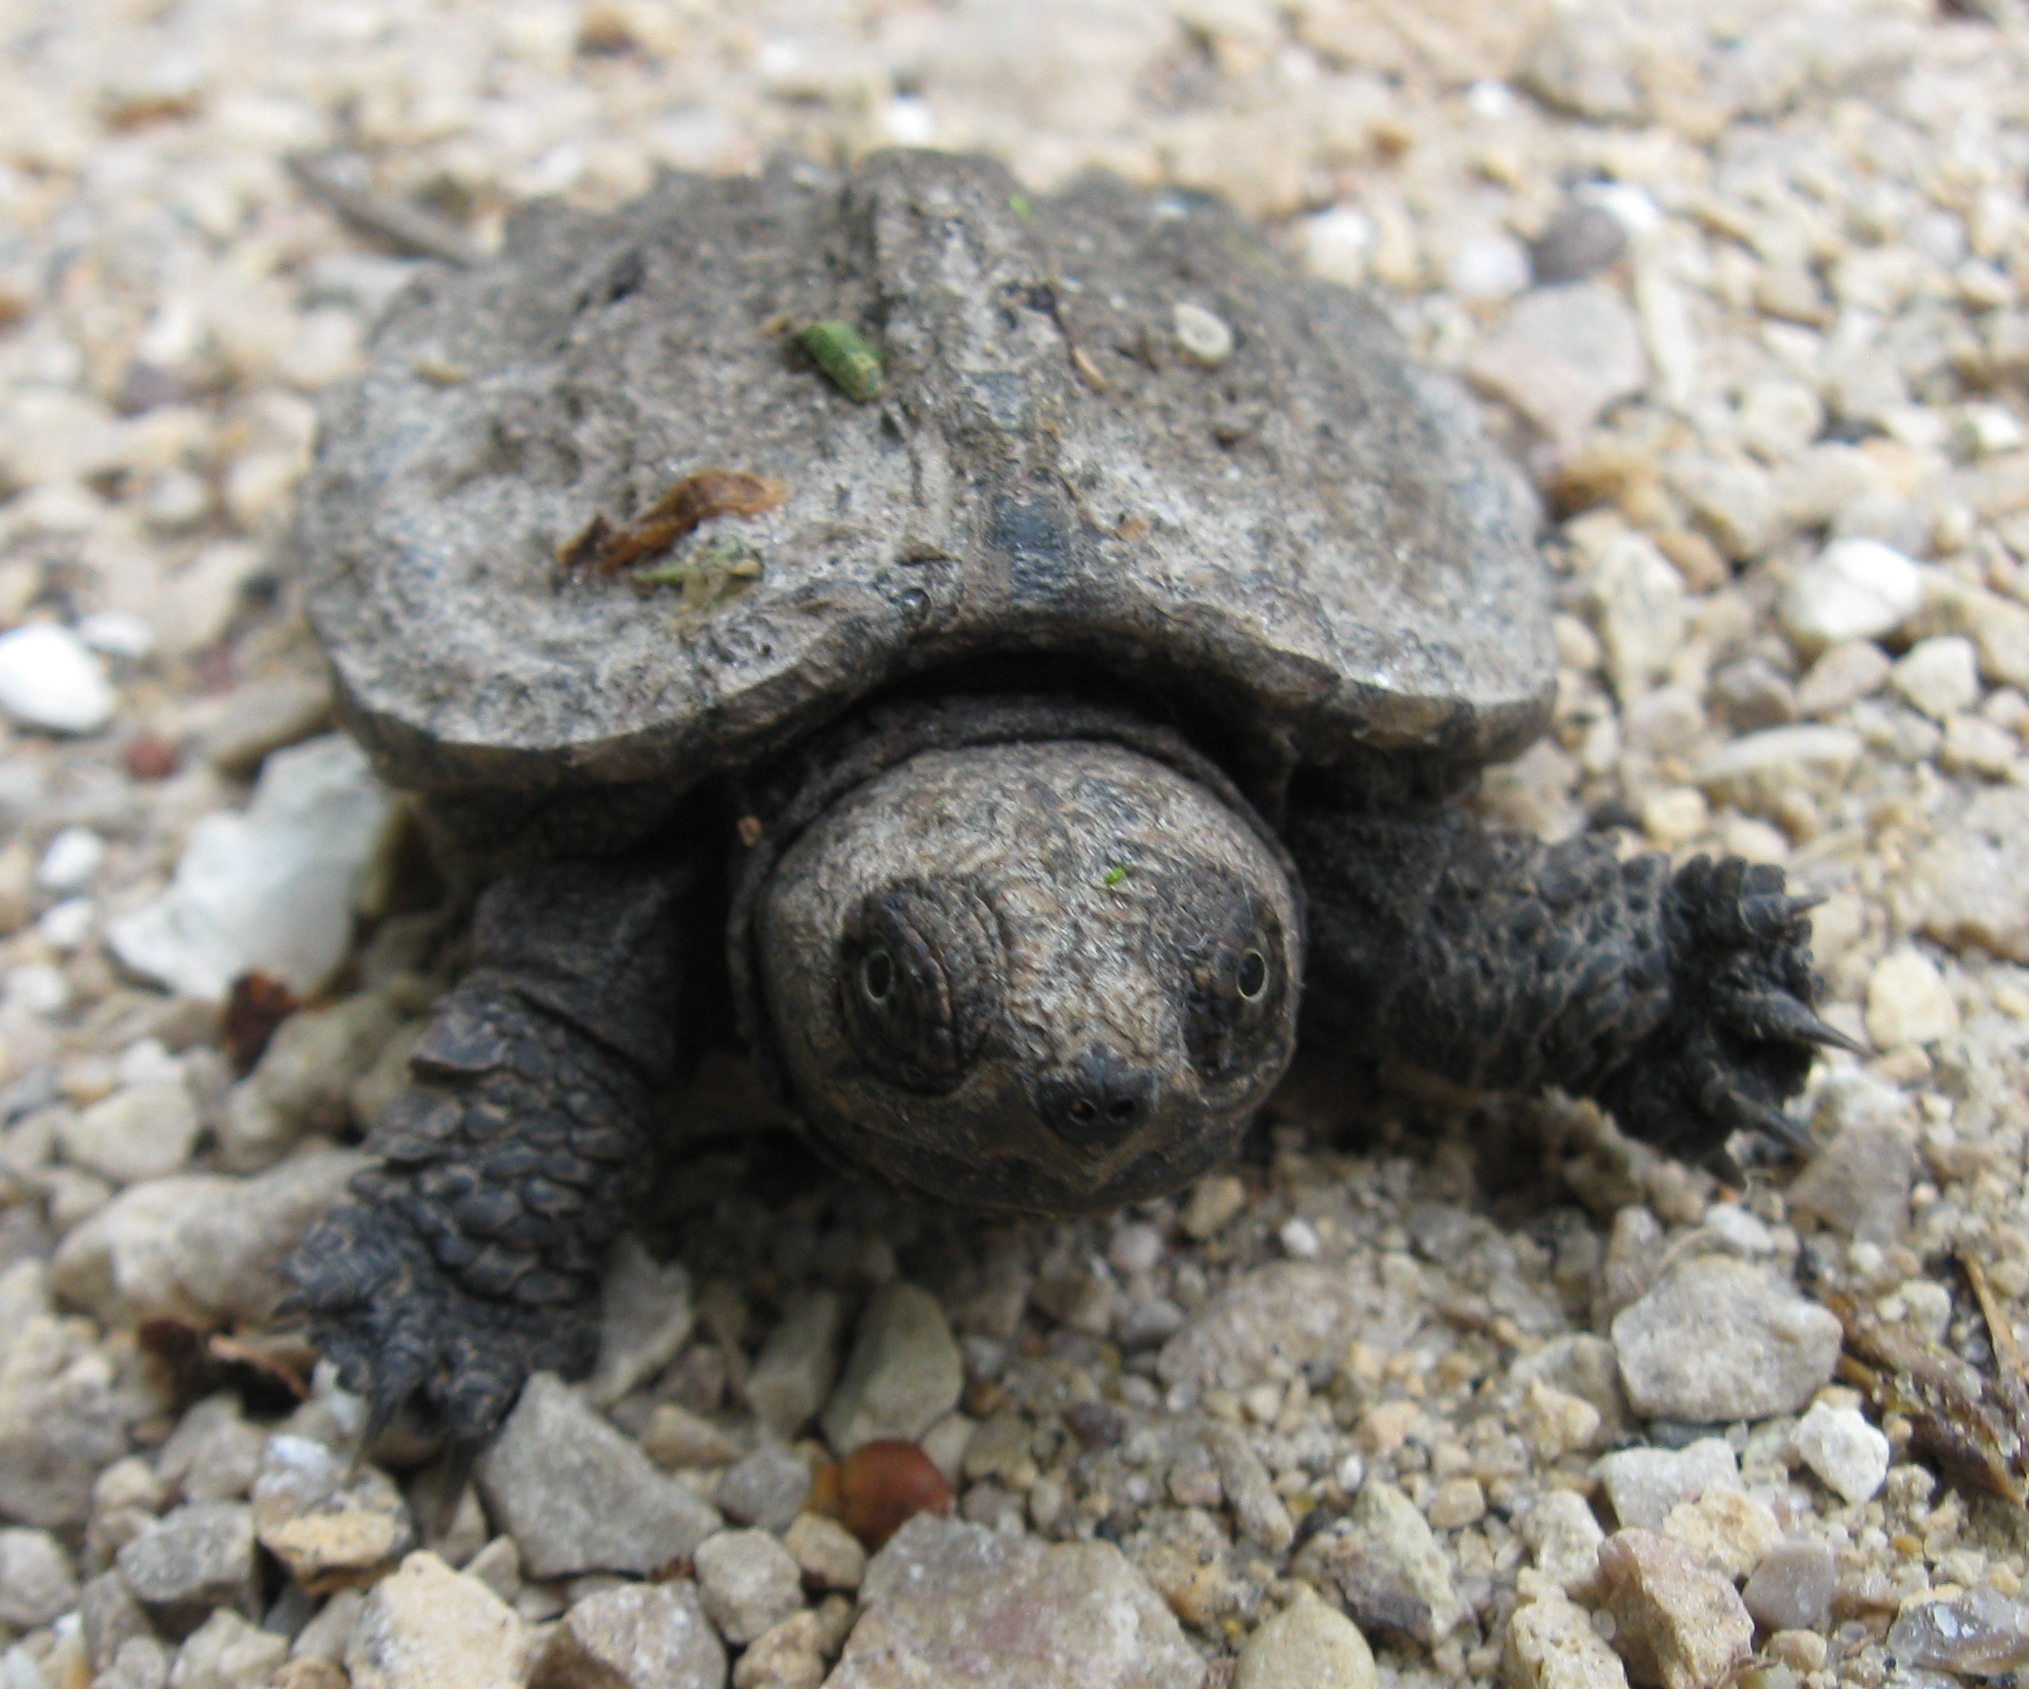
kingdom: Animalia
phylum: Chordata
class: Testudines
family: Chelydridae
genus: Chelydra
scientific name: Chelydra serpentina
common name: Common snapping turtle
